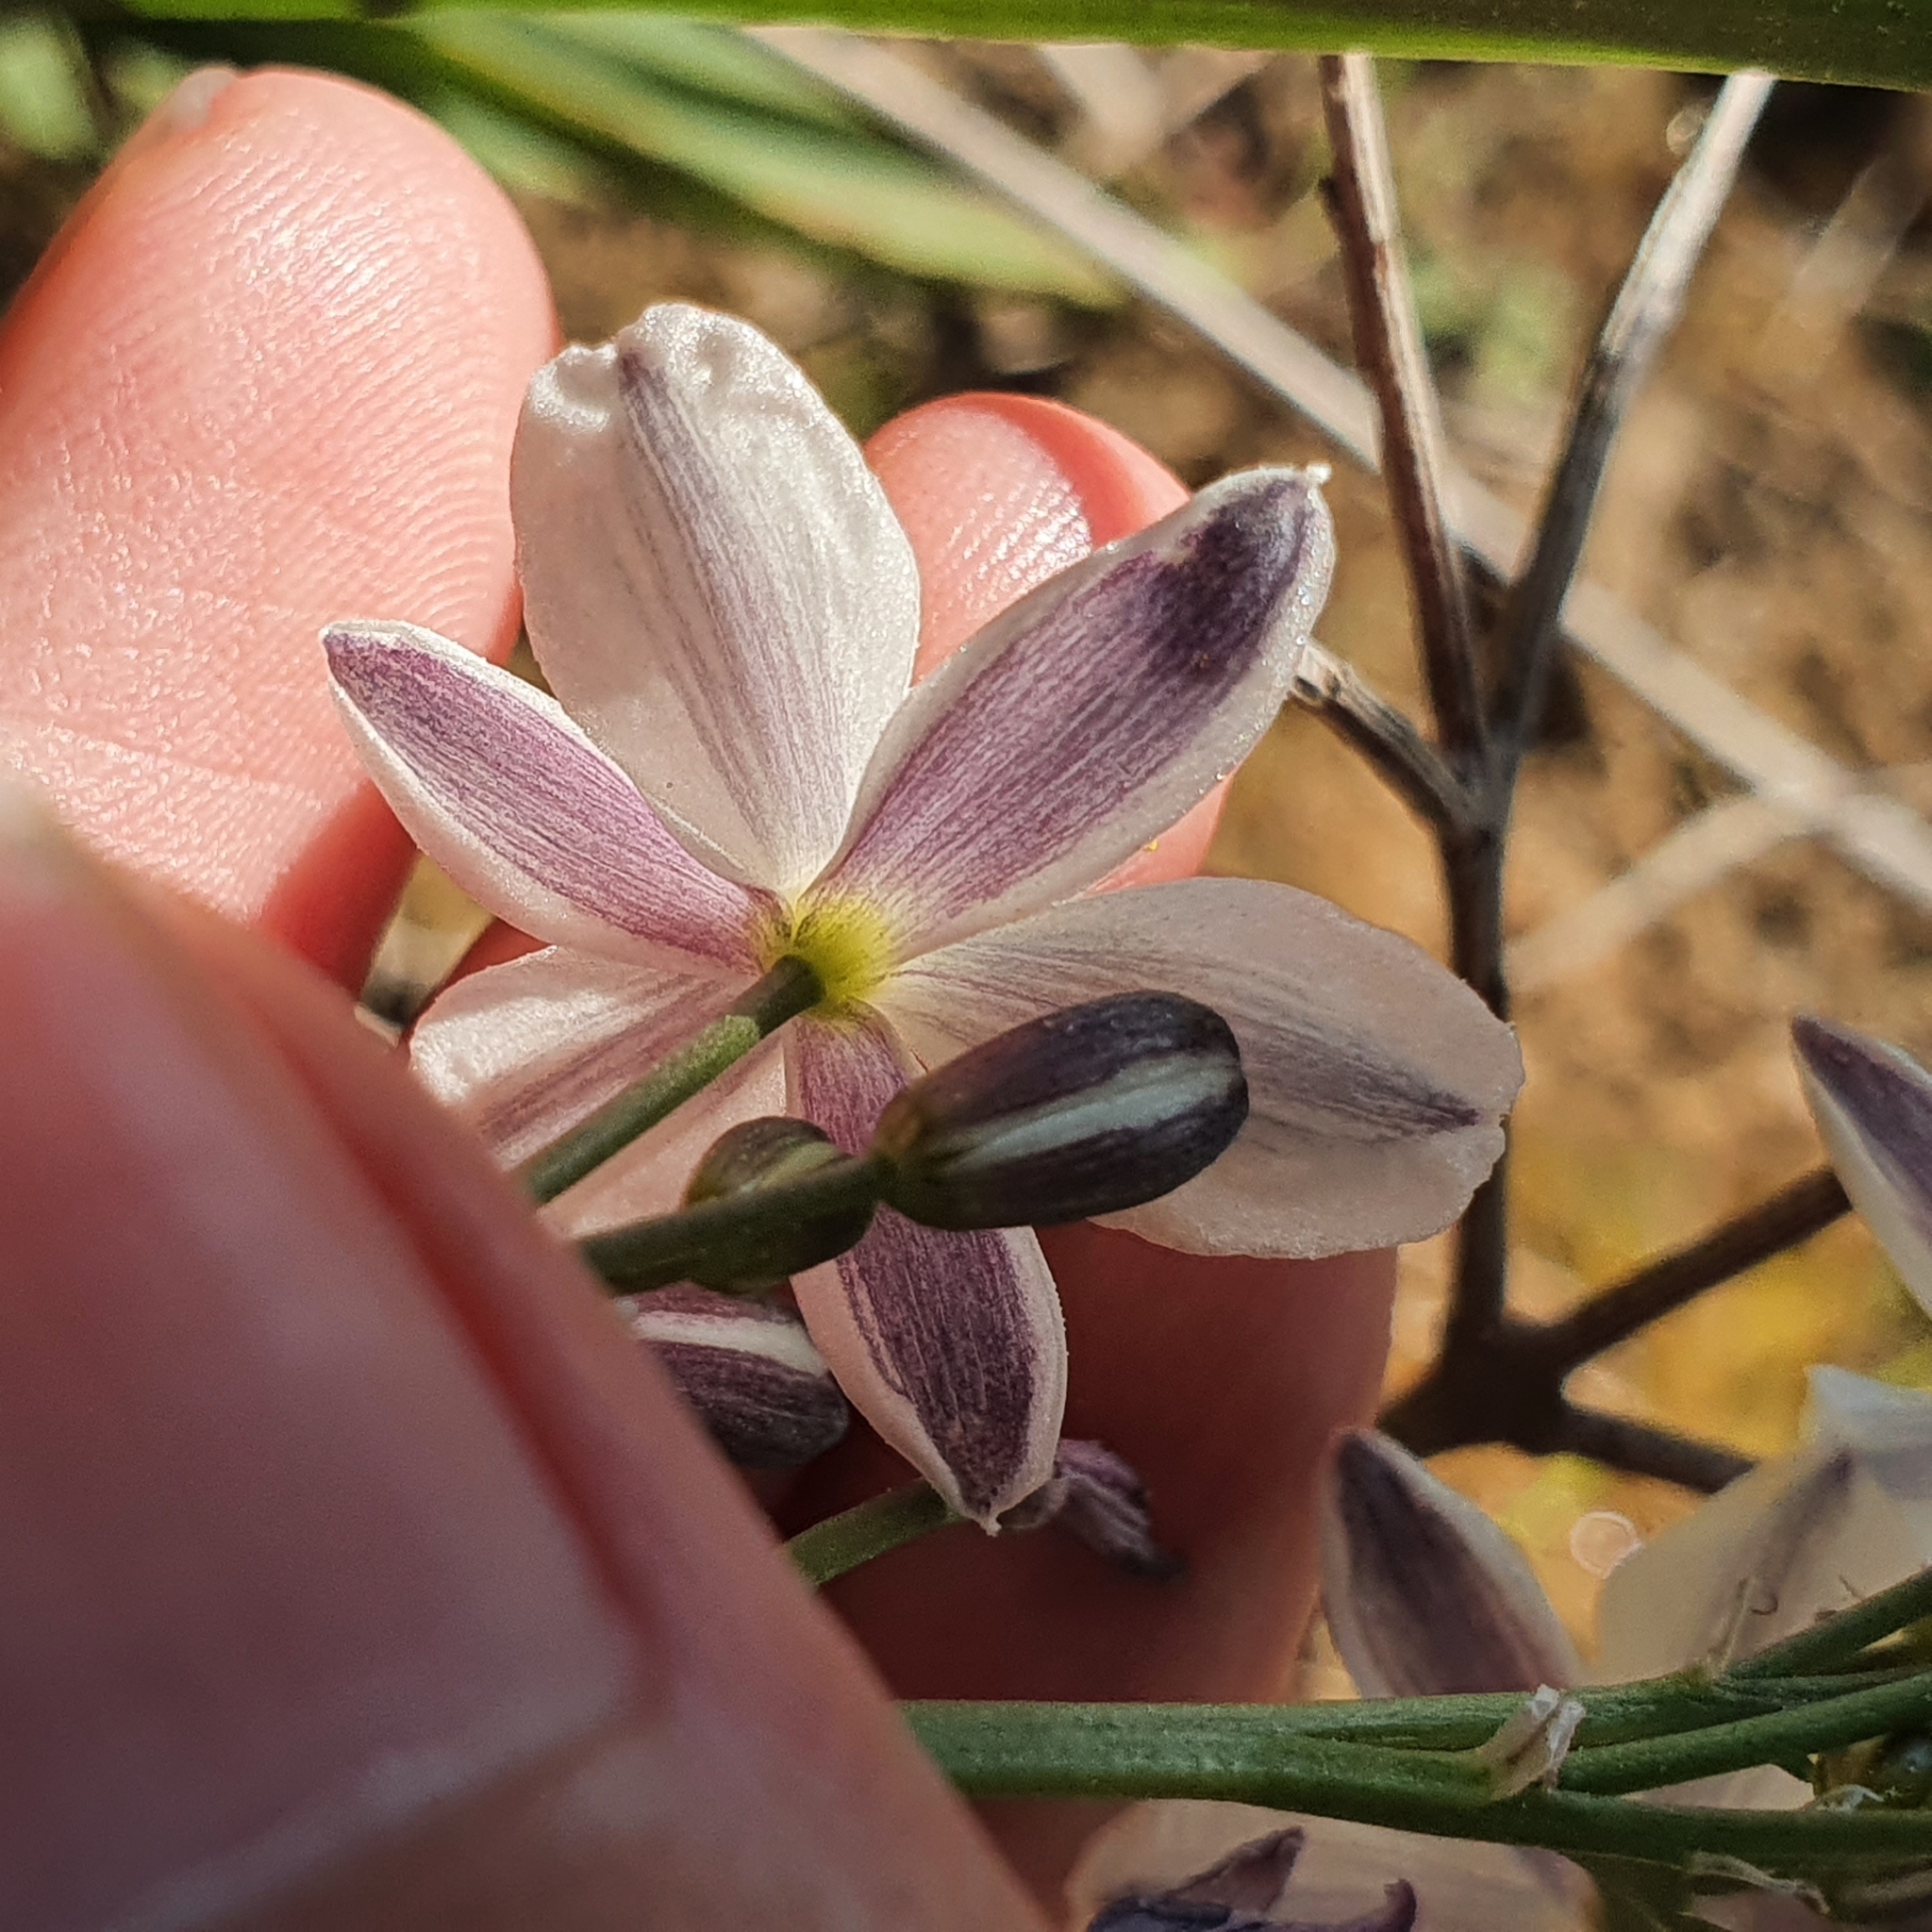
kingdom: Plantae
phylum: Tracheophyta
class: Liliopsida
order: Asparagales
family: Asphodelaceae
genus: Simethis
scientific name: Simethis mattiazzii
